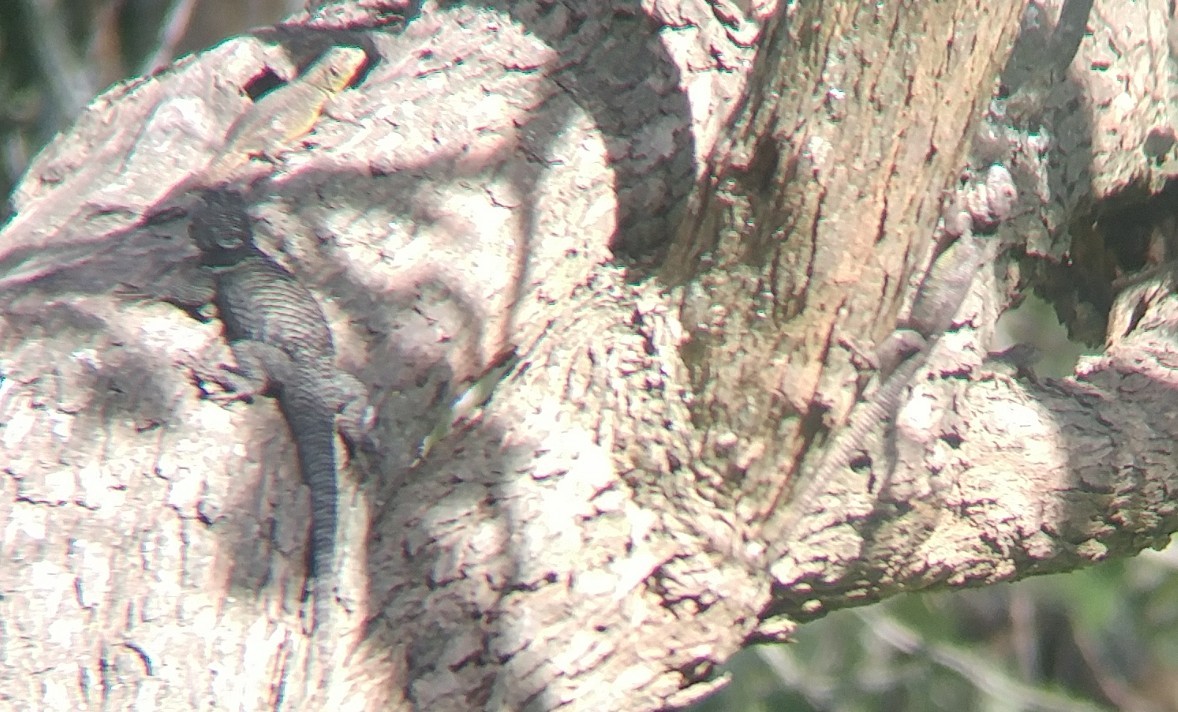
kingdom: Animalia
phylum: Chordata
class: Squamata
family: Phrynosomatidae
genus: Sceloporus
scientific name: Sceloporus torquatus
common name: Central plateau torquate lizard [melanogaster]
